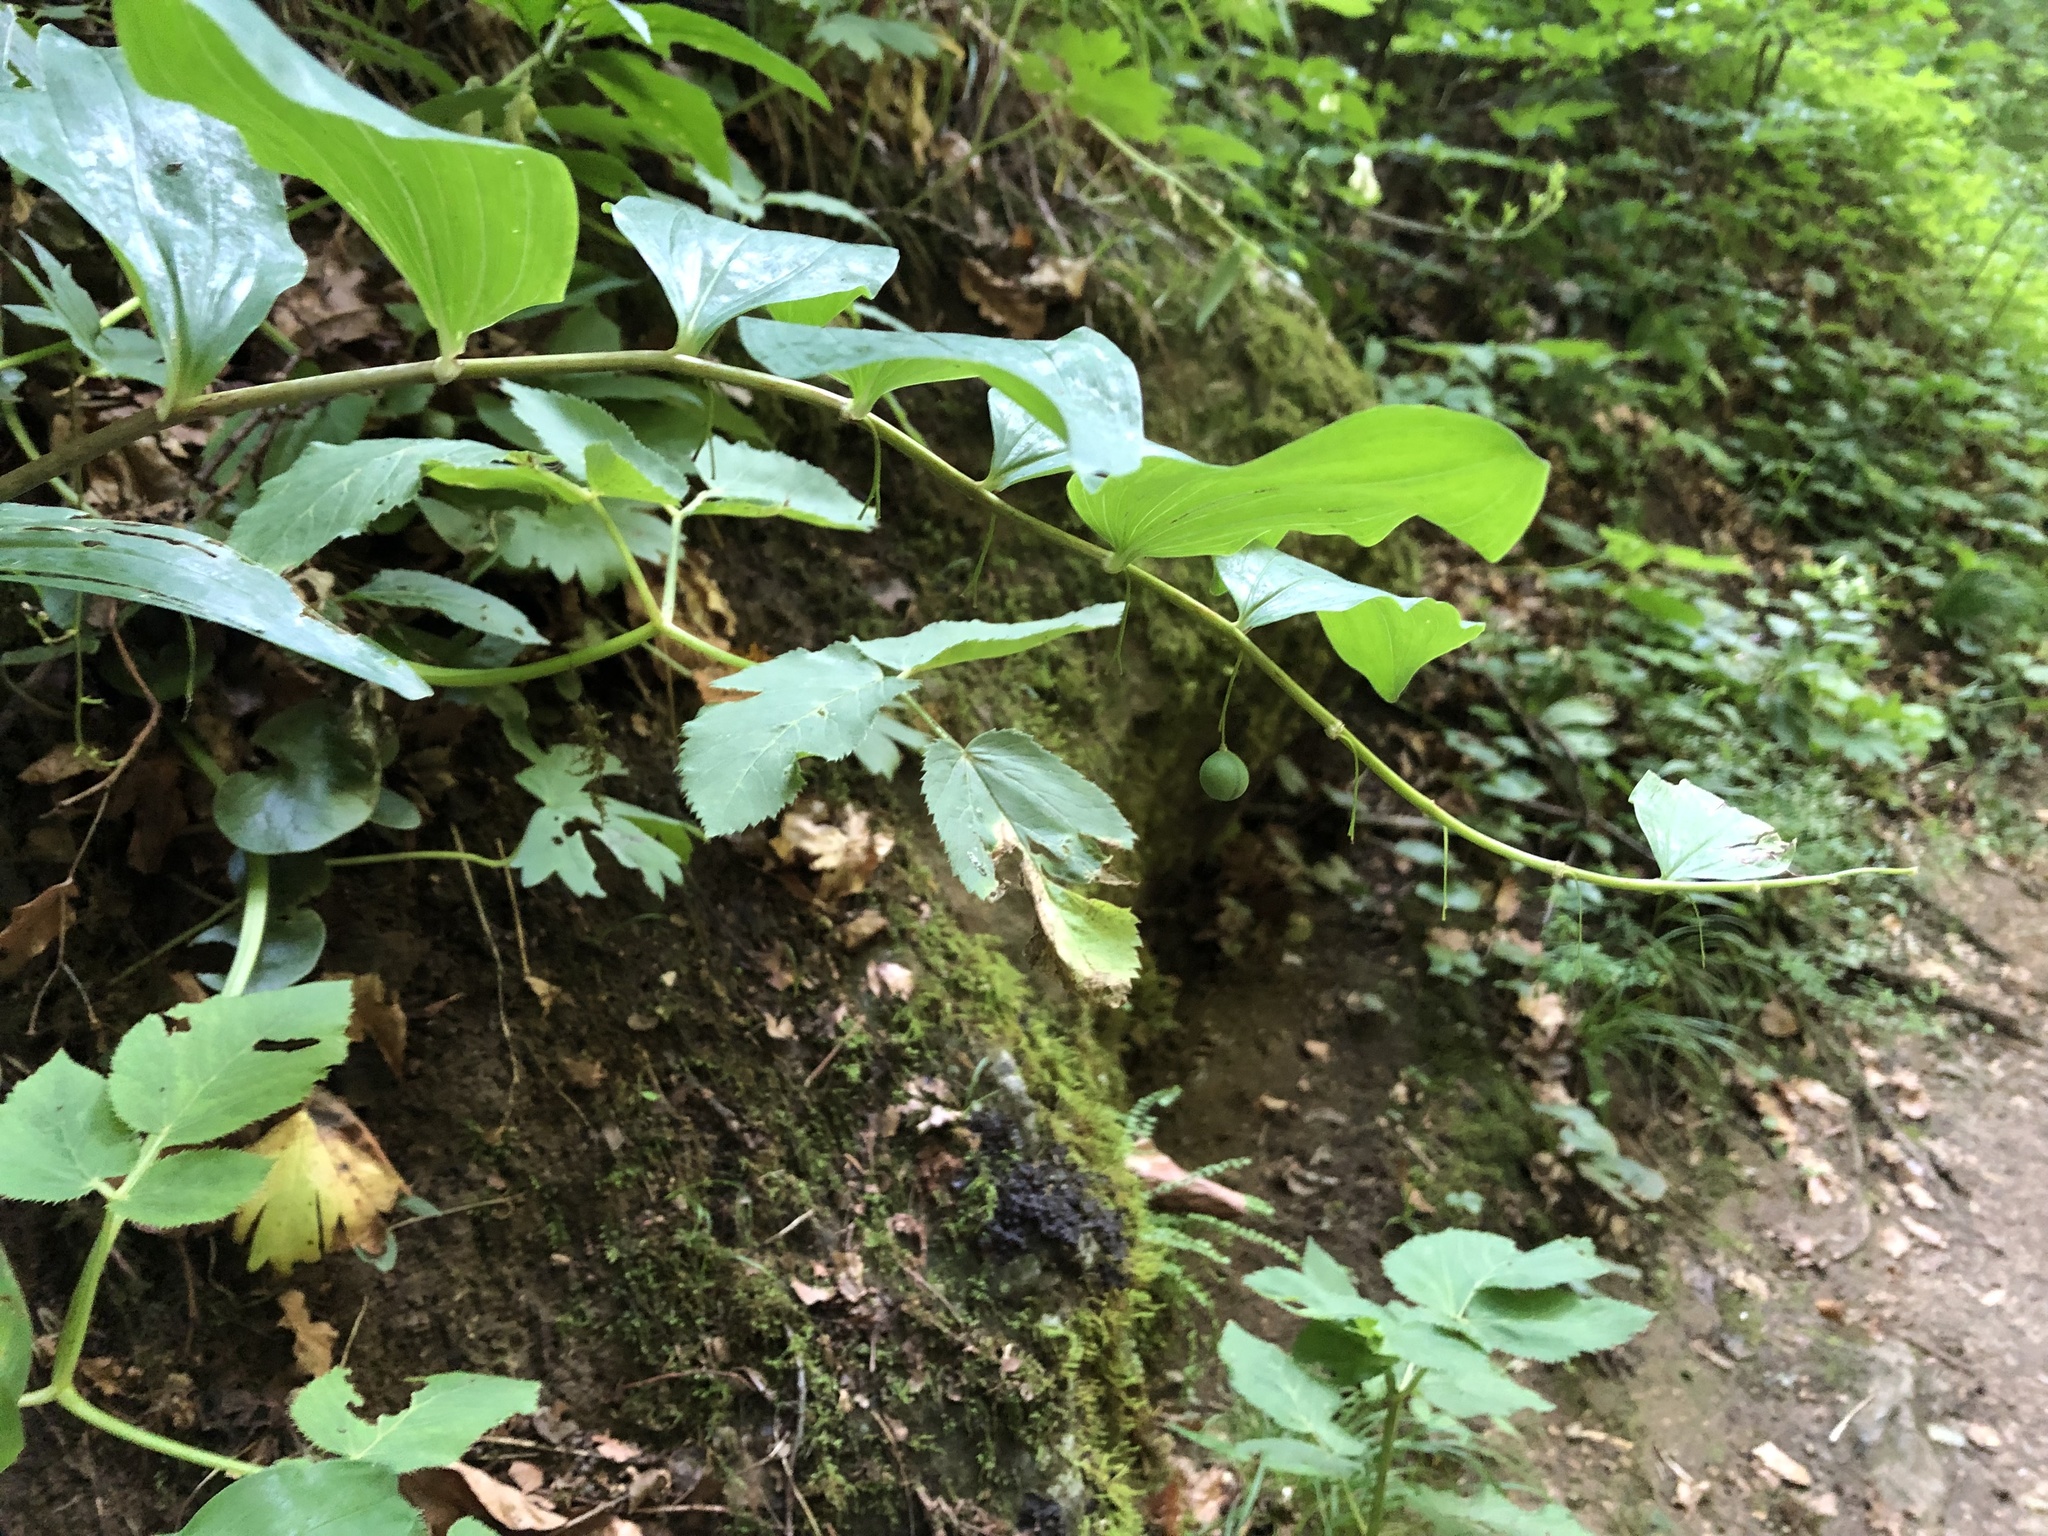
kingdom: Plantae
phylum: Tracheophyta
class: Liliopsida
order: Asparagales
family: Asparagaceae
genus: Polygonatum
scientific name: Polygonatum multiflorum
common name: Solomon's-seal
